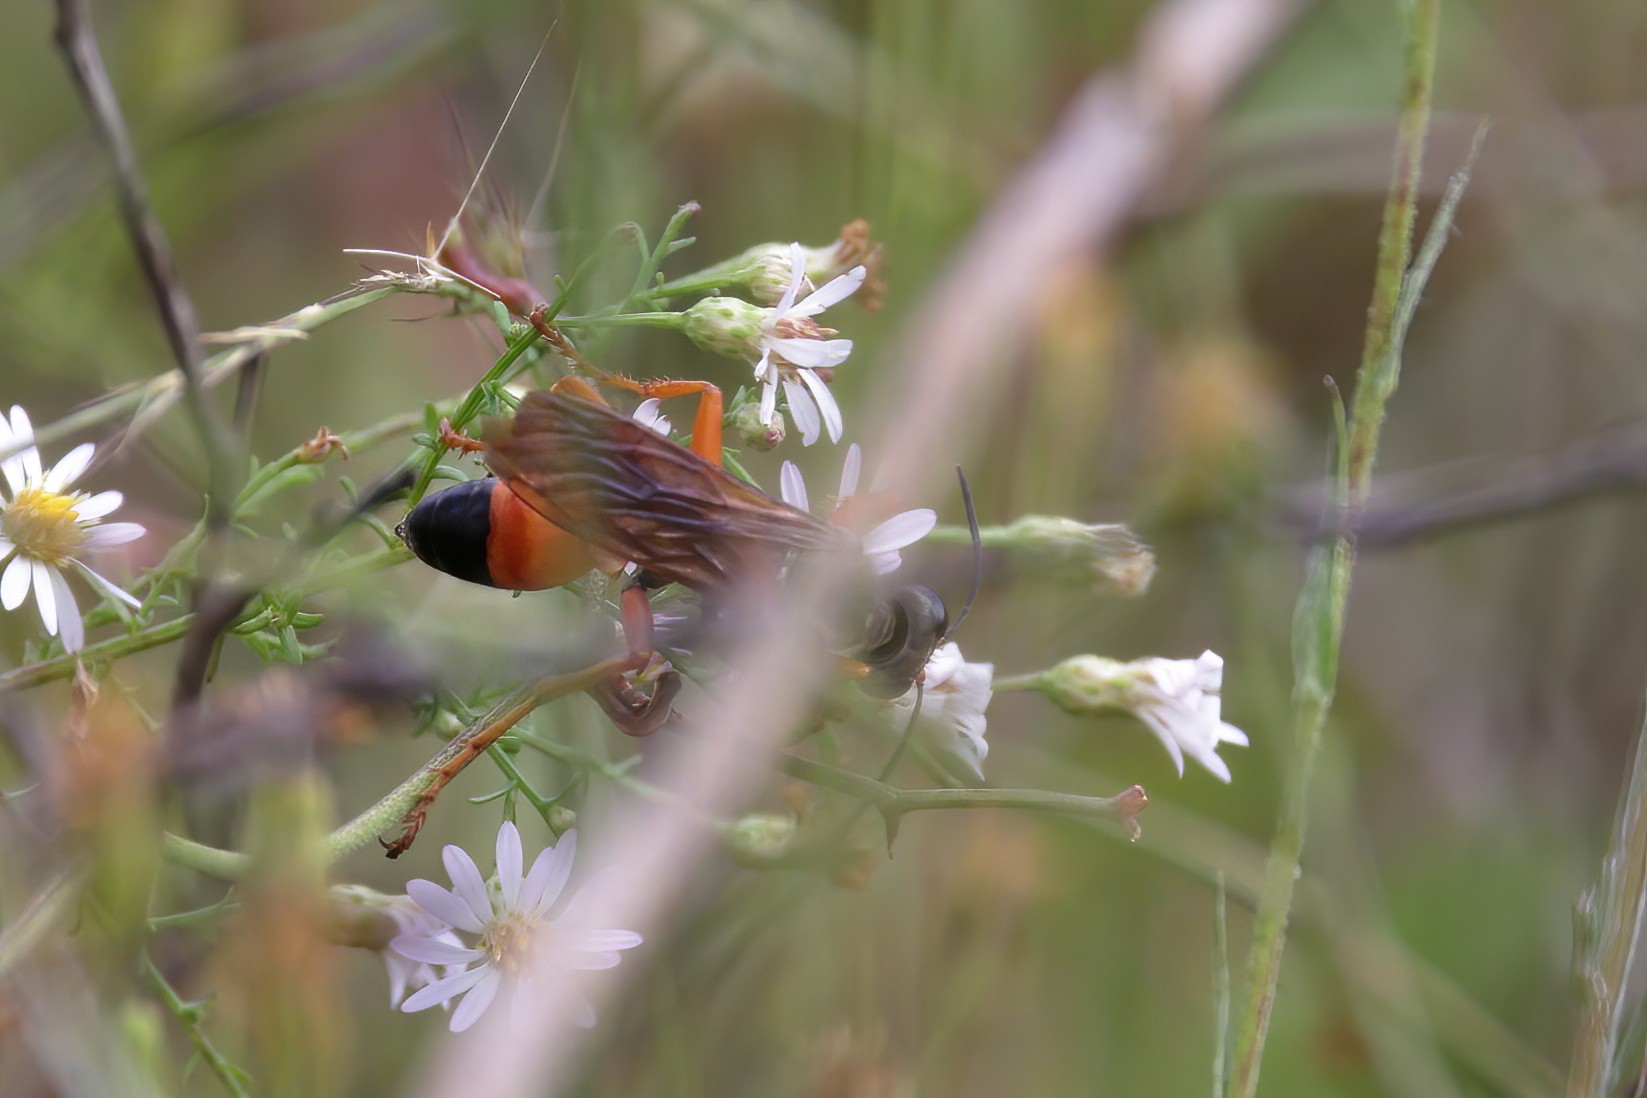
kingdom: Animalia
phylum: Arthropoda
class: Insecta
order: Hymenoptera
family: Sphecidae
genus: Sphex
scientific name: Sphex ichneumoneus
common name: Great golden digger wasp
